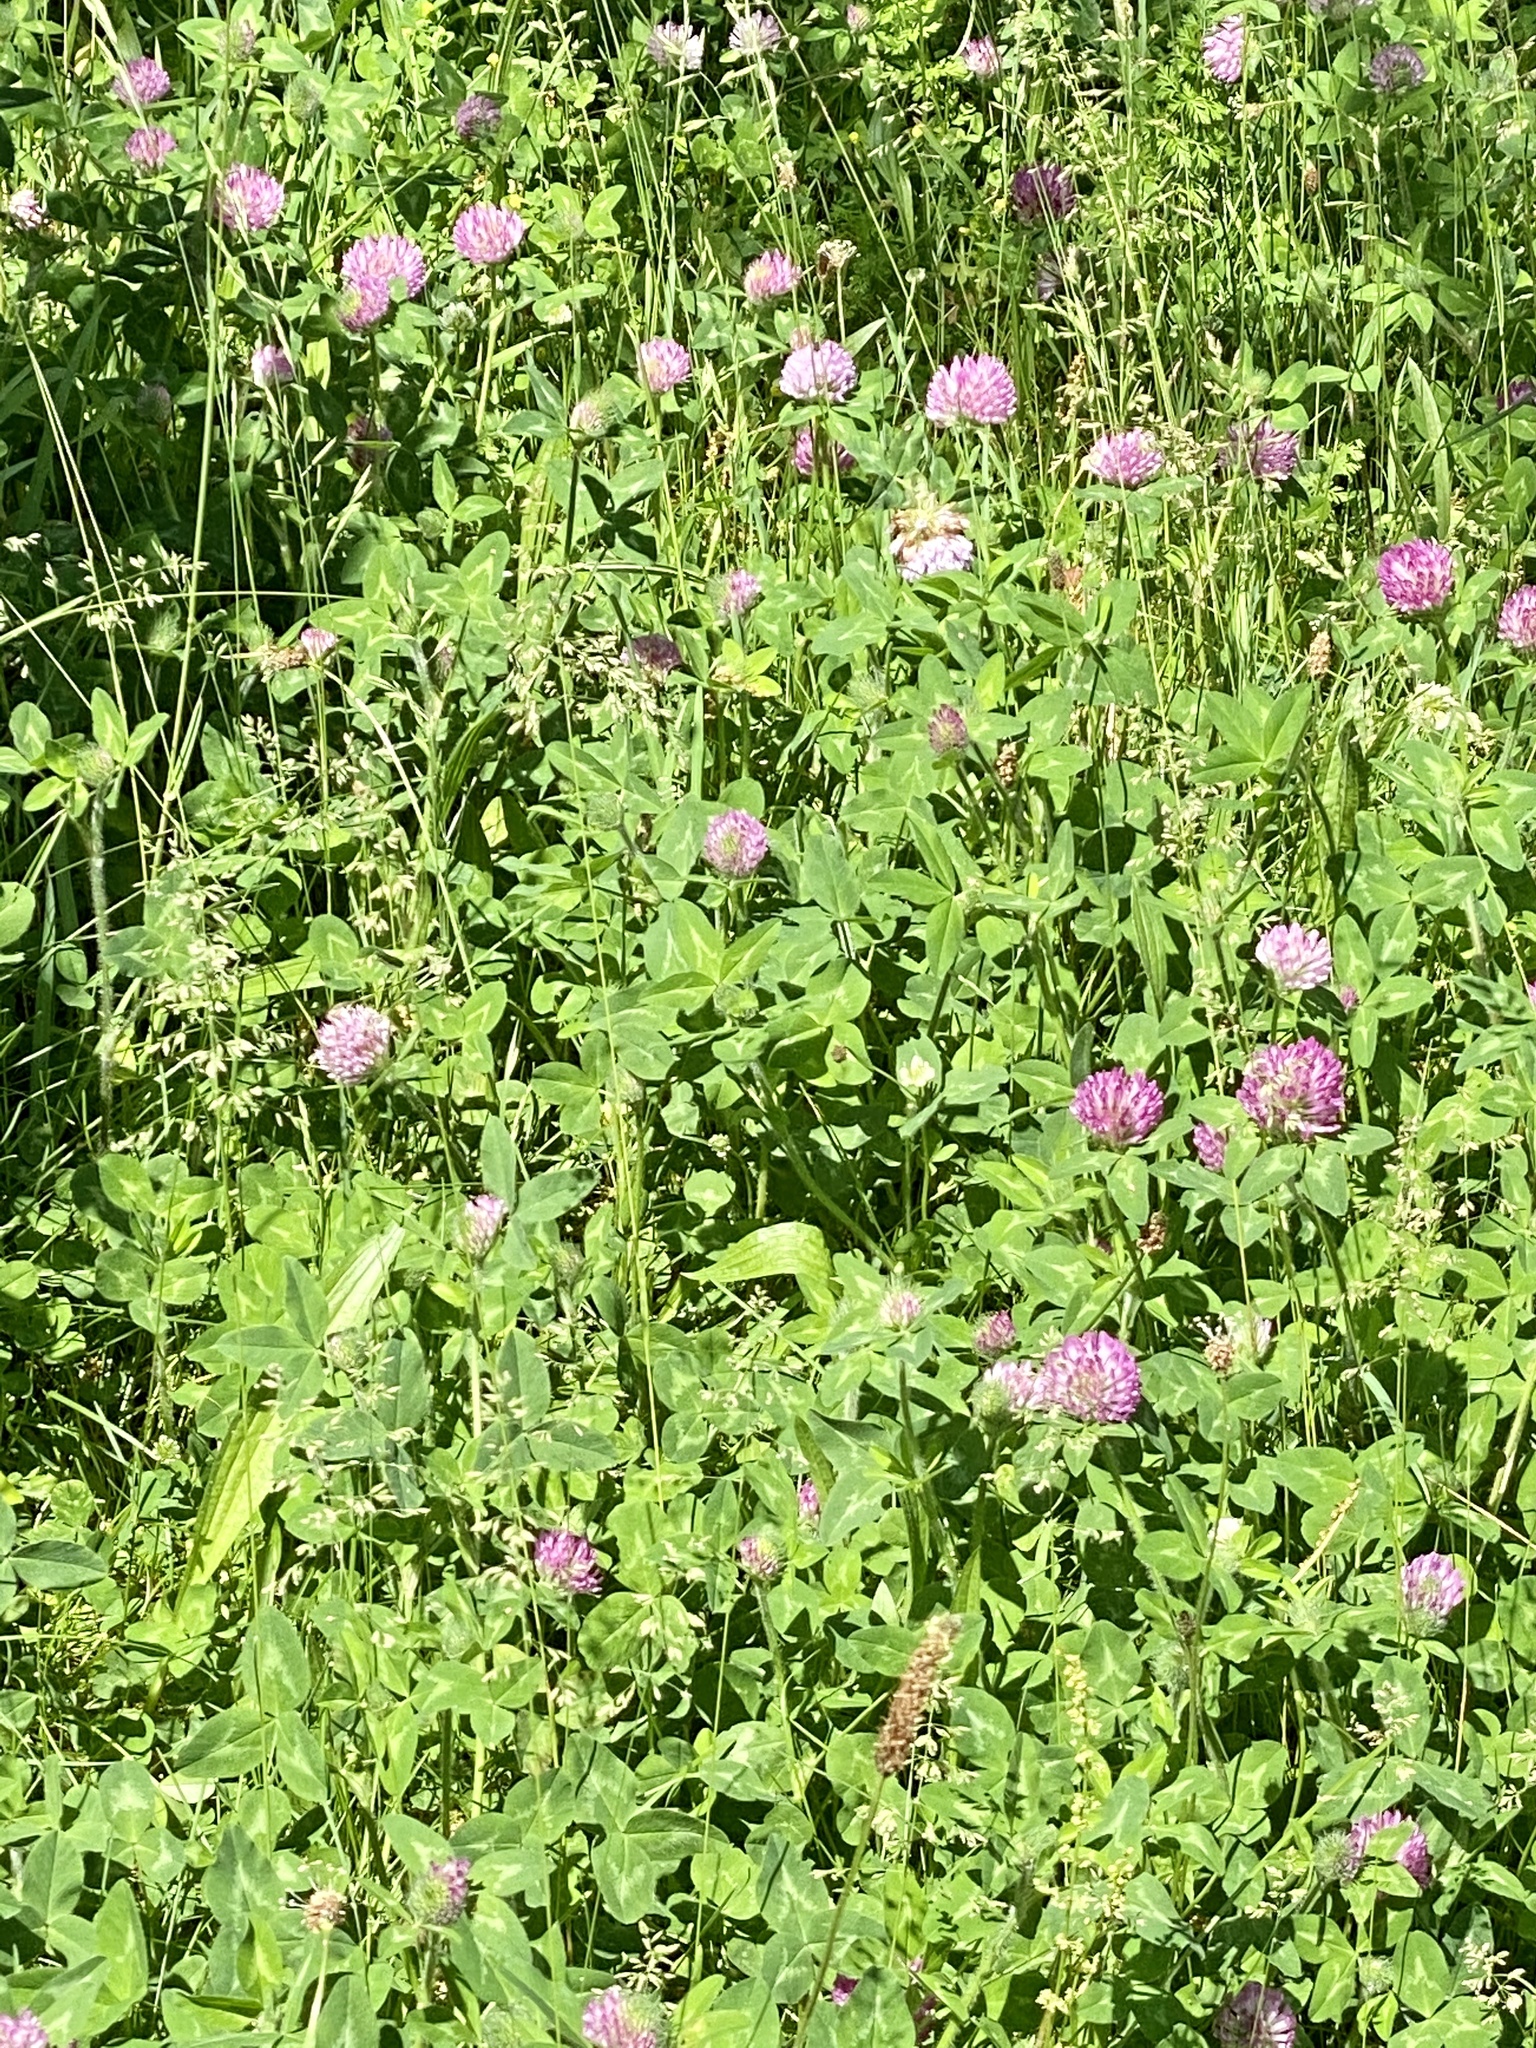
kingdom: Plantae
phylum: Tracheophyta
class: Magnoliopsida
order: Fabales
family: Fabaceae
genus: Trifolium
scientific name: Trifolium pratense
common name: Red clover
